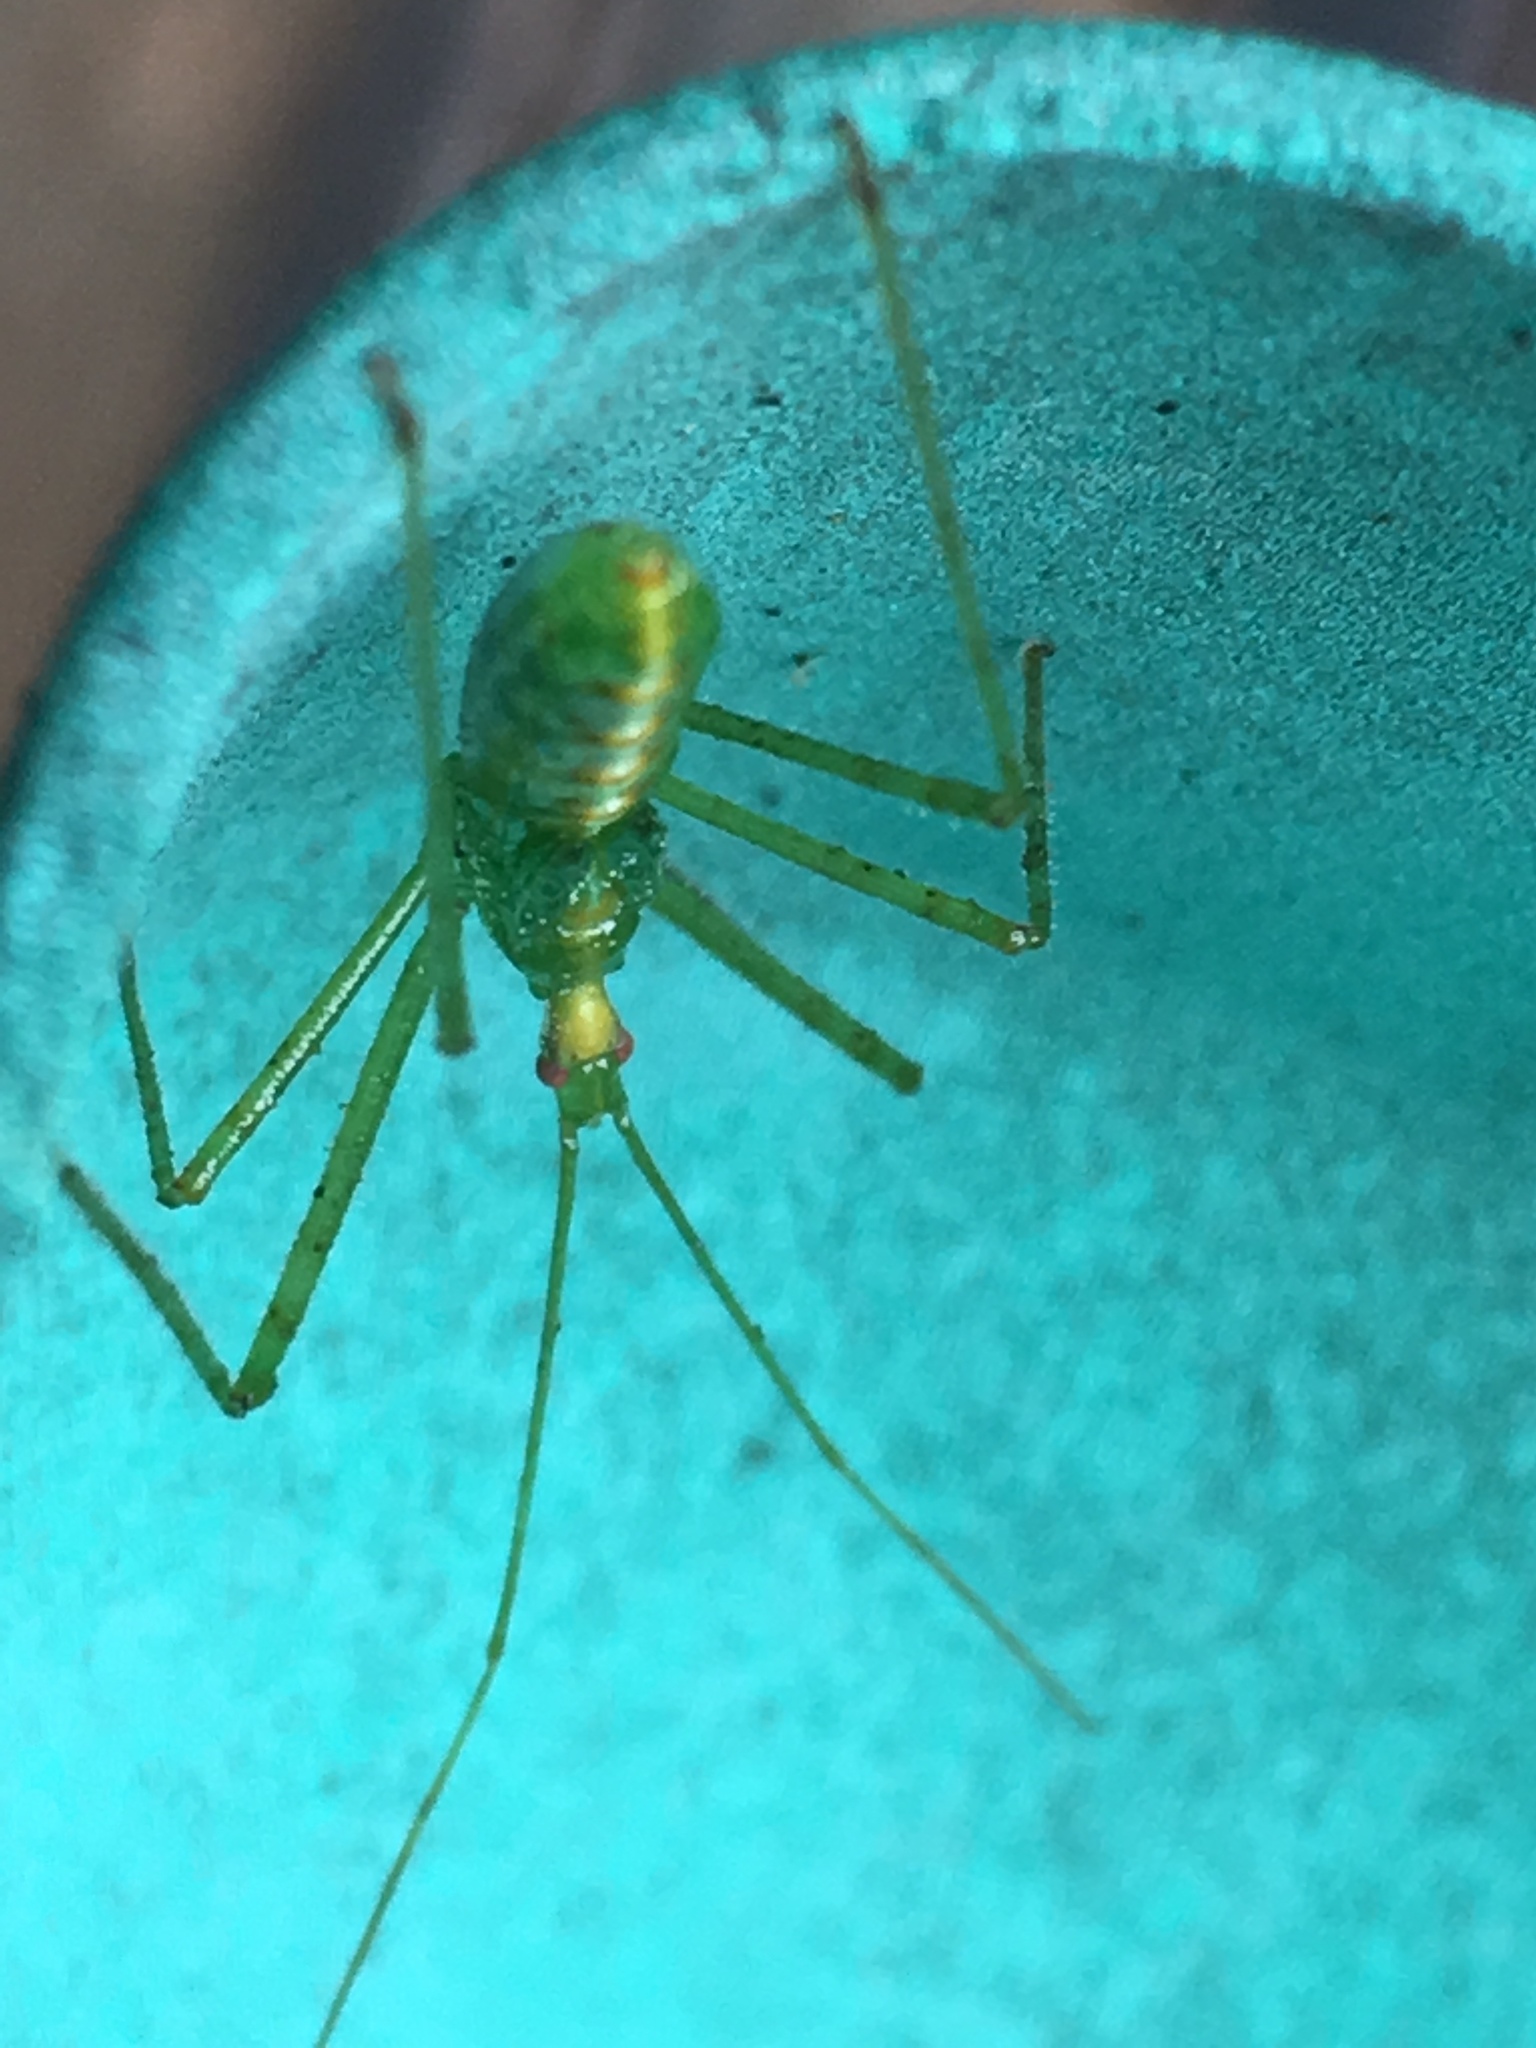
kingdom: Animalia
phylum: Arthropoda
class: Insecta
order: Hemiptera
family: Reduviidae
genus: Zelus
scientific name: Zelus luridus
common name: Pale green assassin bug
